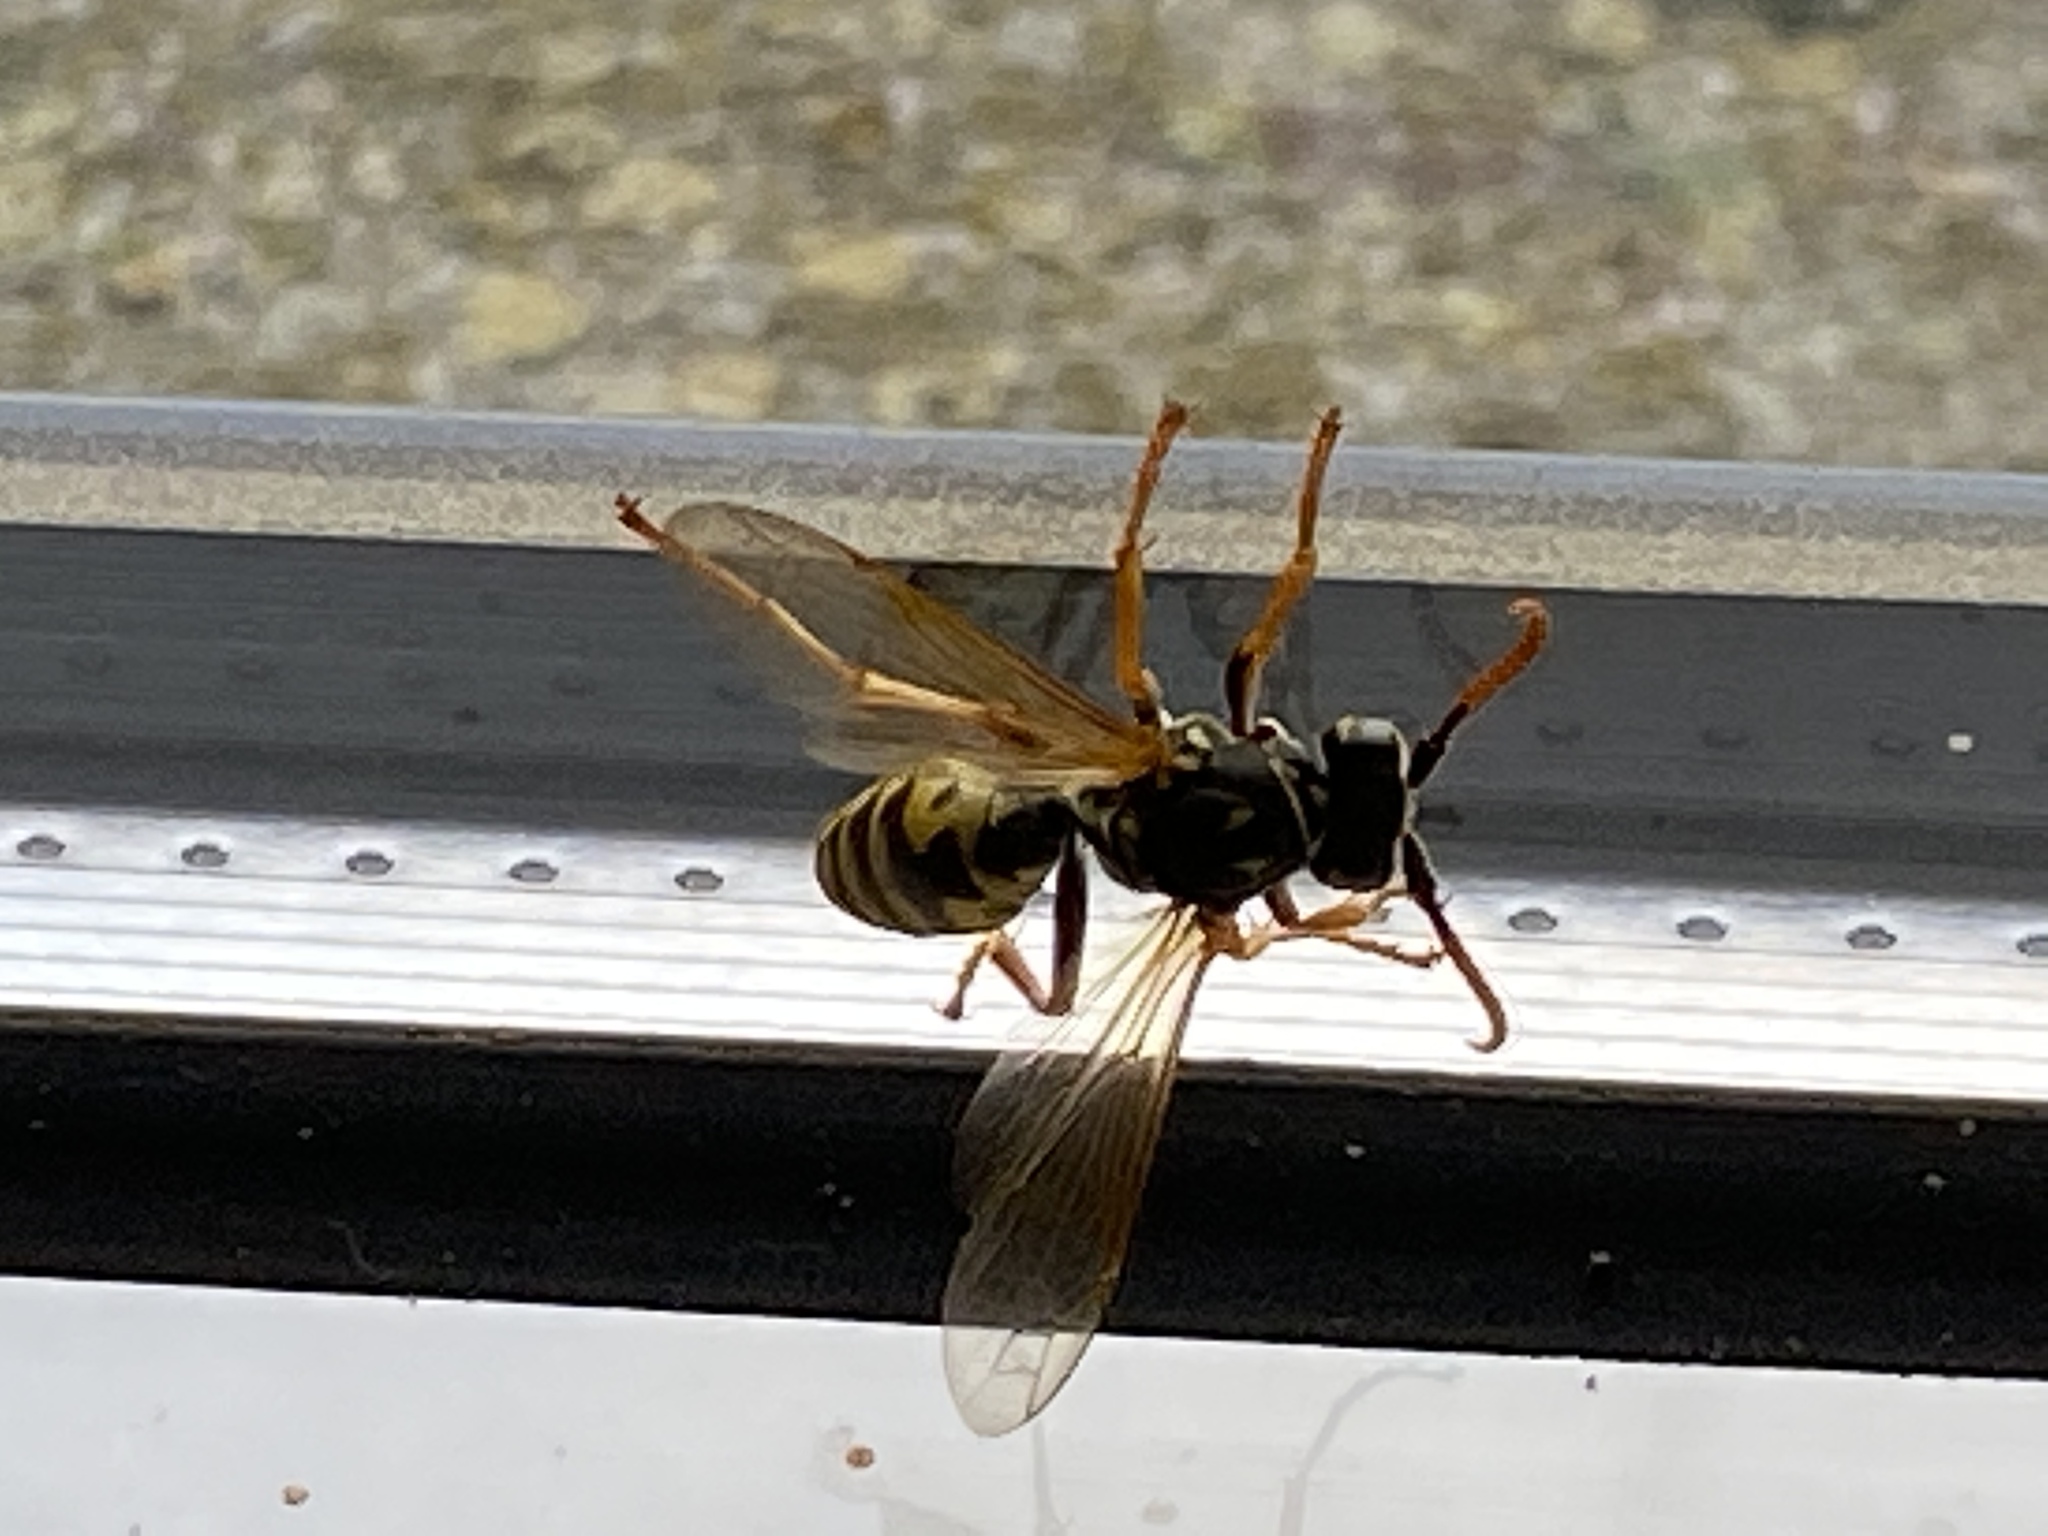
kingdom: Animalia
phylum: Arthropoda
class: Insecta
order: Hymenoptera
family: Eumenidae
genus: Polistes
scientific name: Polistes dominula
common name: Paper wasp
